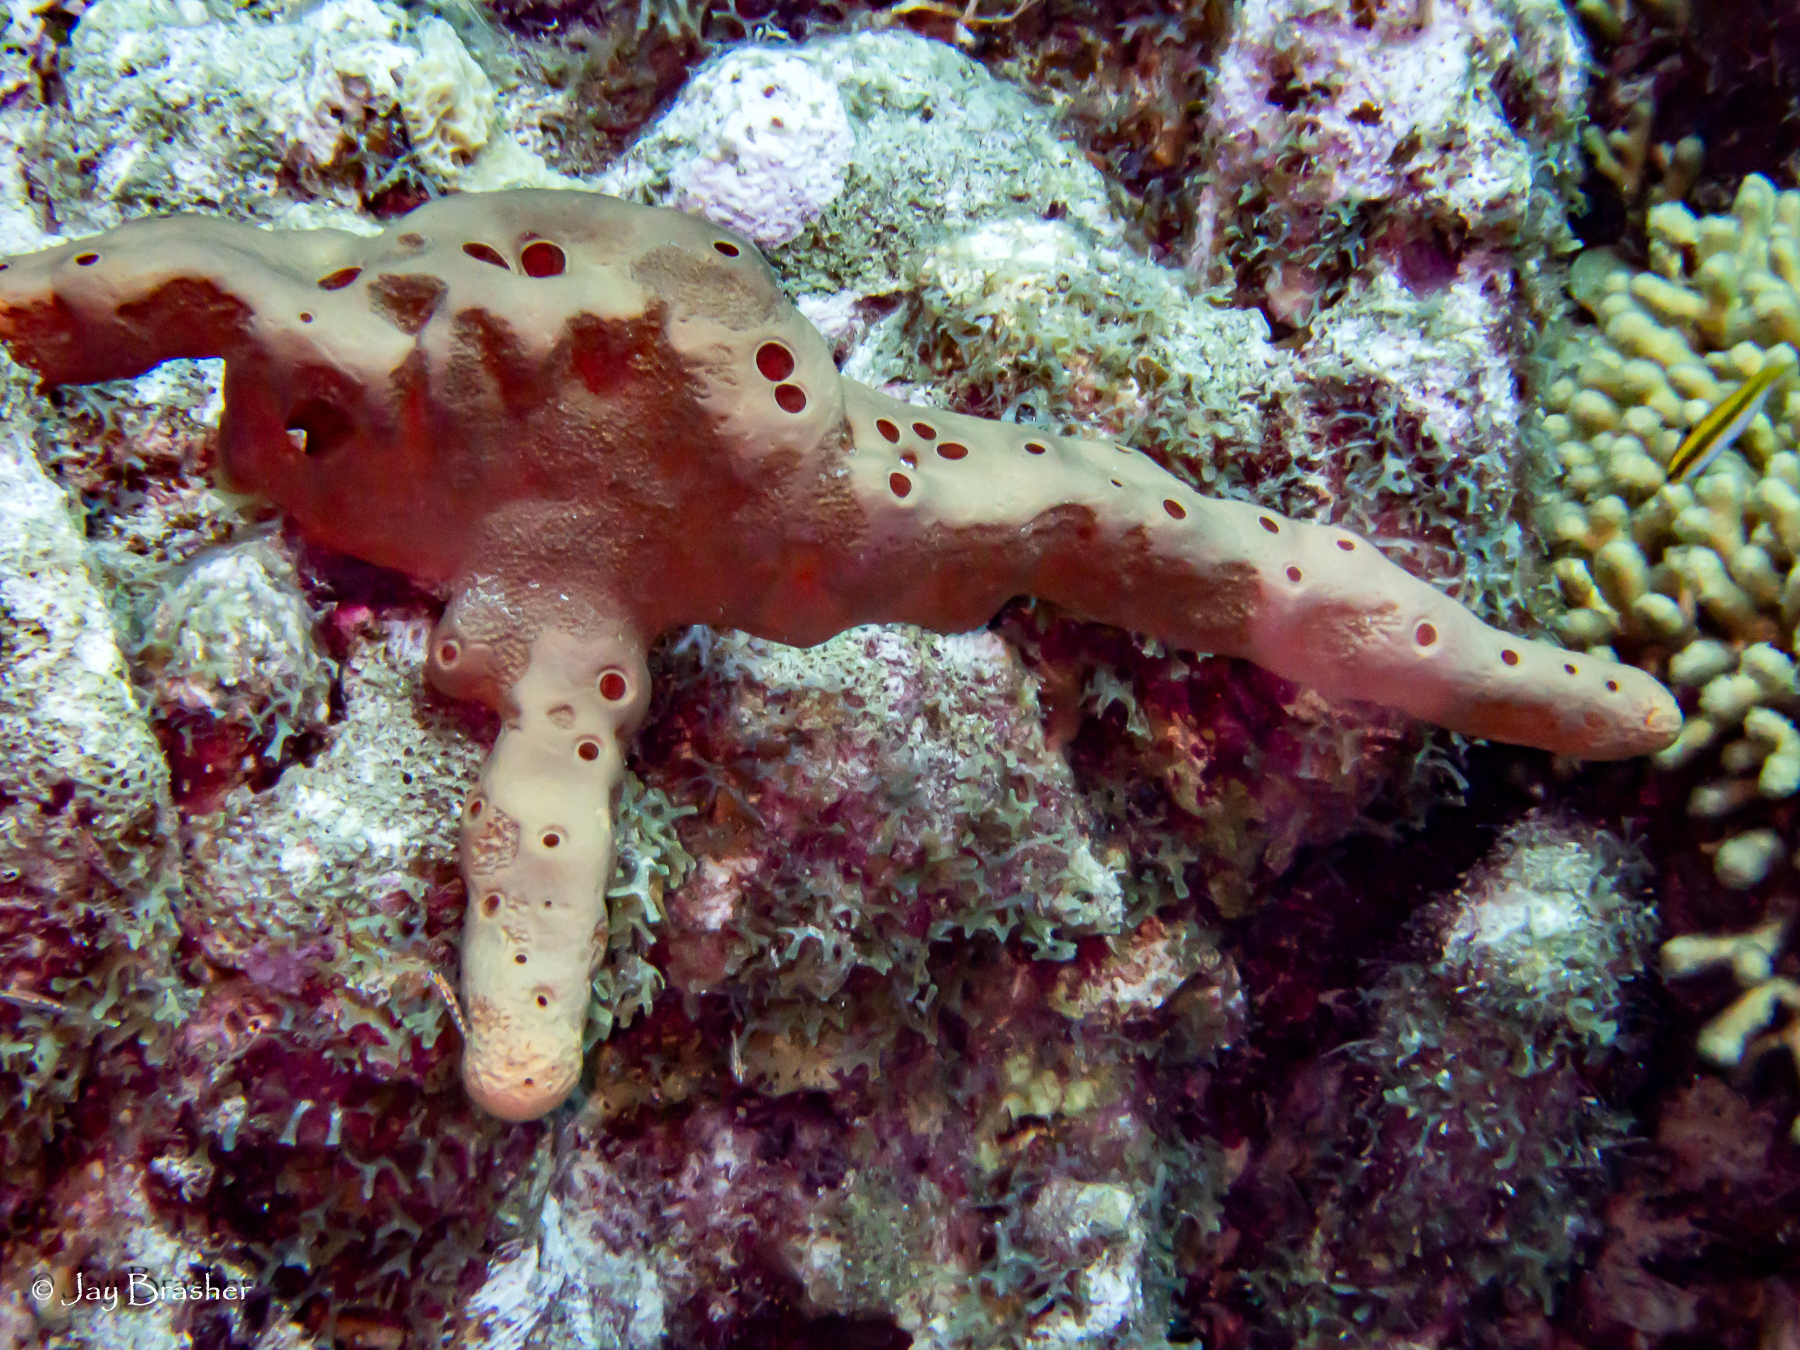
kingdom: Animalia
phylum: Chordata
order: Perciformes
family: Labridae
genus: Thalassoma
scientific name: Thalassoma bifasciatum
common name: Bluehead wrasse
